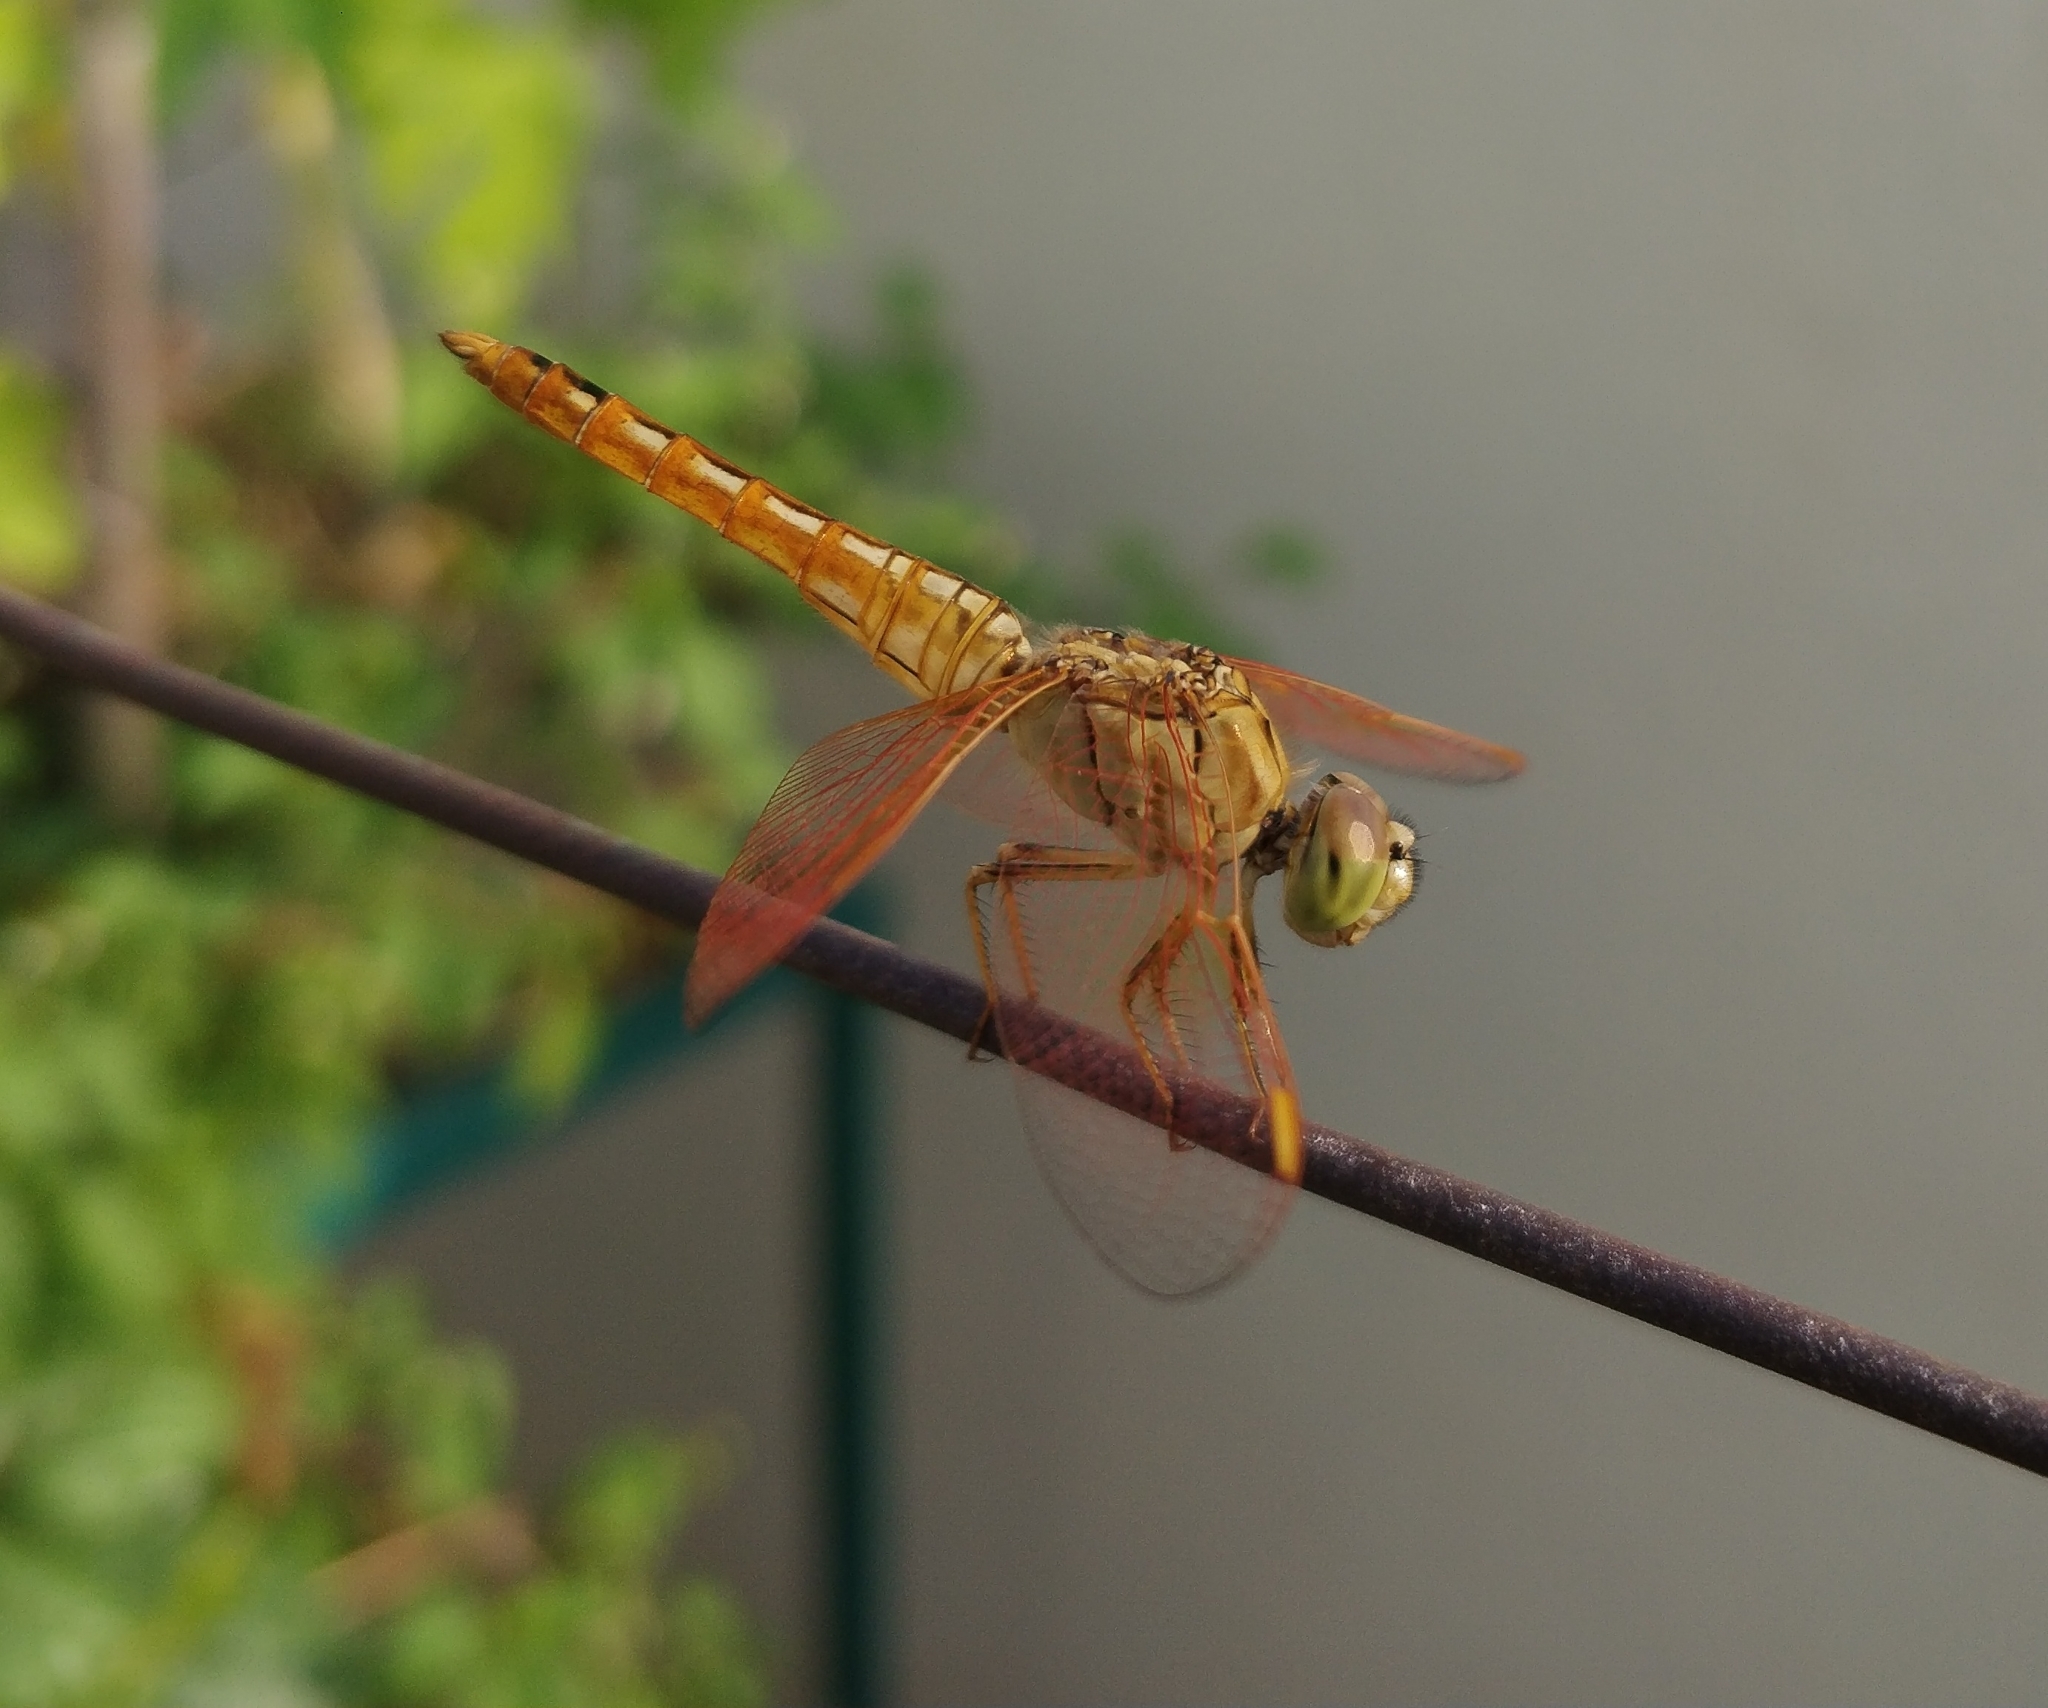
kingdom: Animalia
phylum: Arthropoda
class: Insecta
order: Odonata
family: Libellulidae
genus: Brachythemis
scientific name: Brachythemis contaminata
